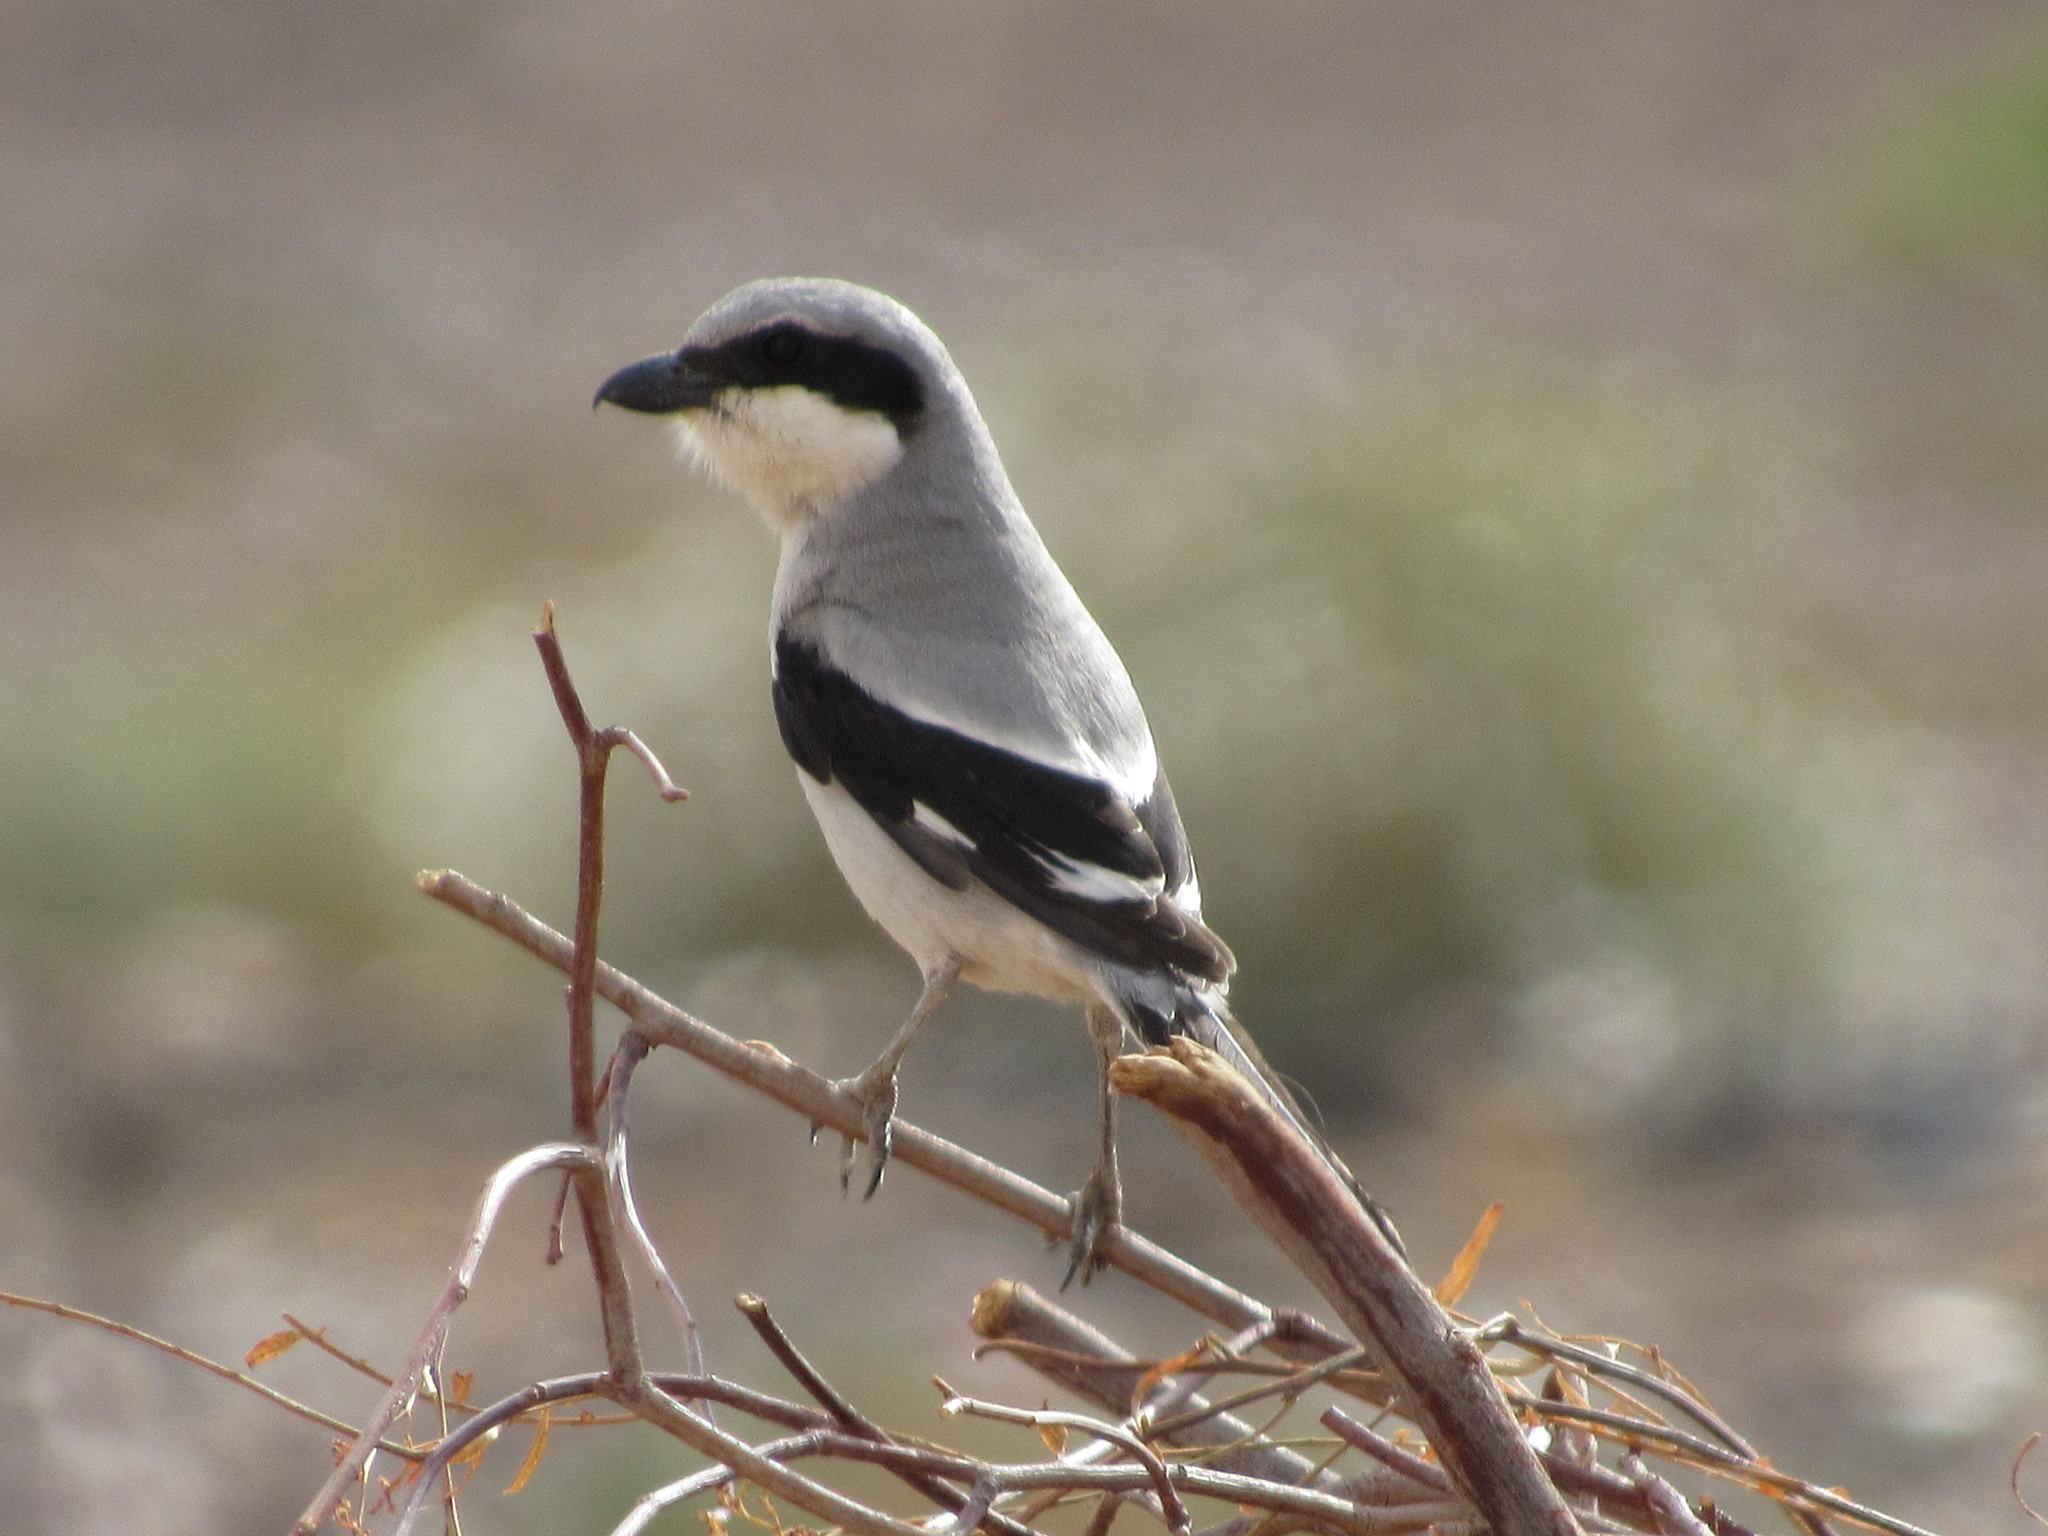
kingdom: Animalia
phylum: Chordata
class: Aves
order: Passeriformes
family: Laniidae
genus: Lanius
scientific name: Lanius excubitor
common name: Great grey shrike
